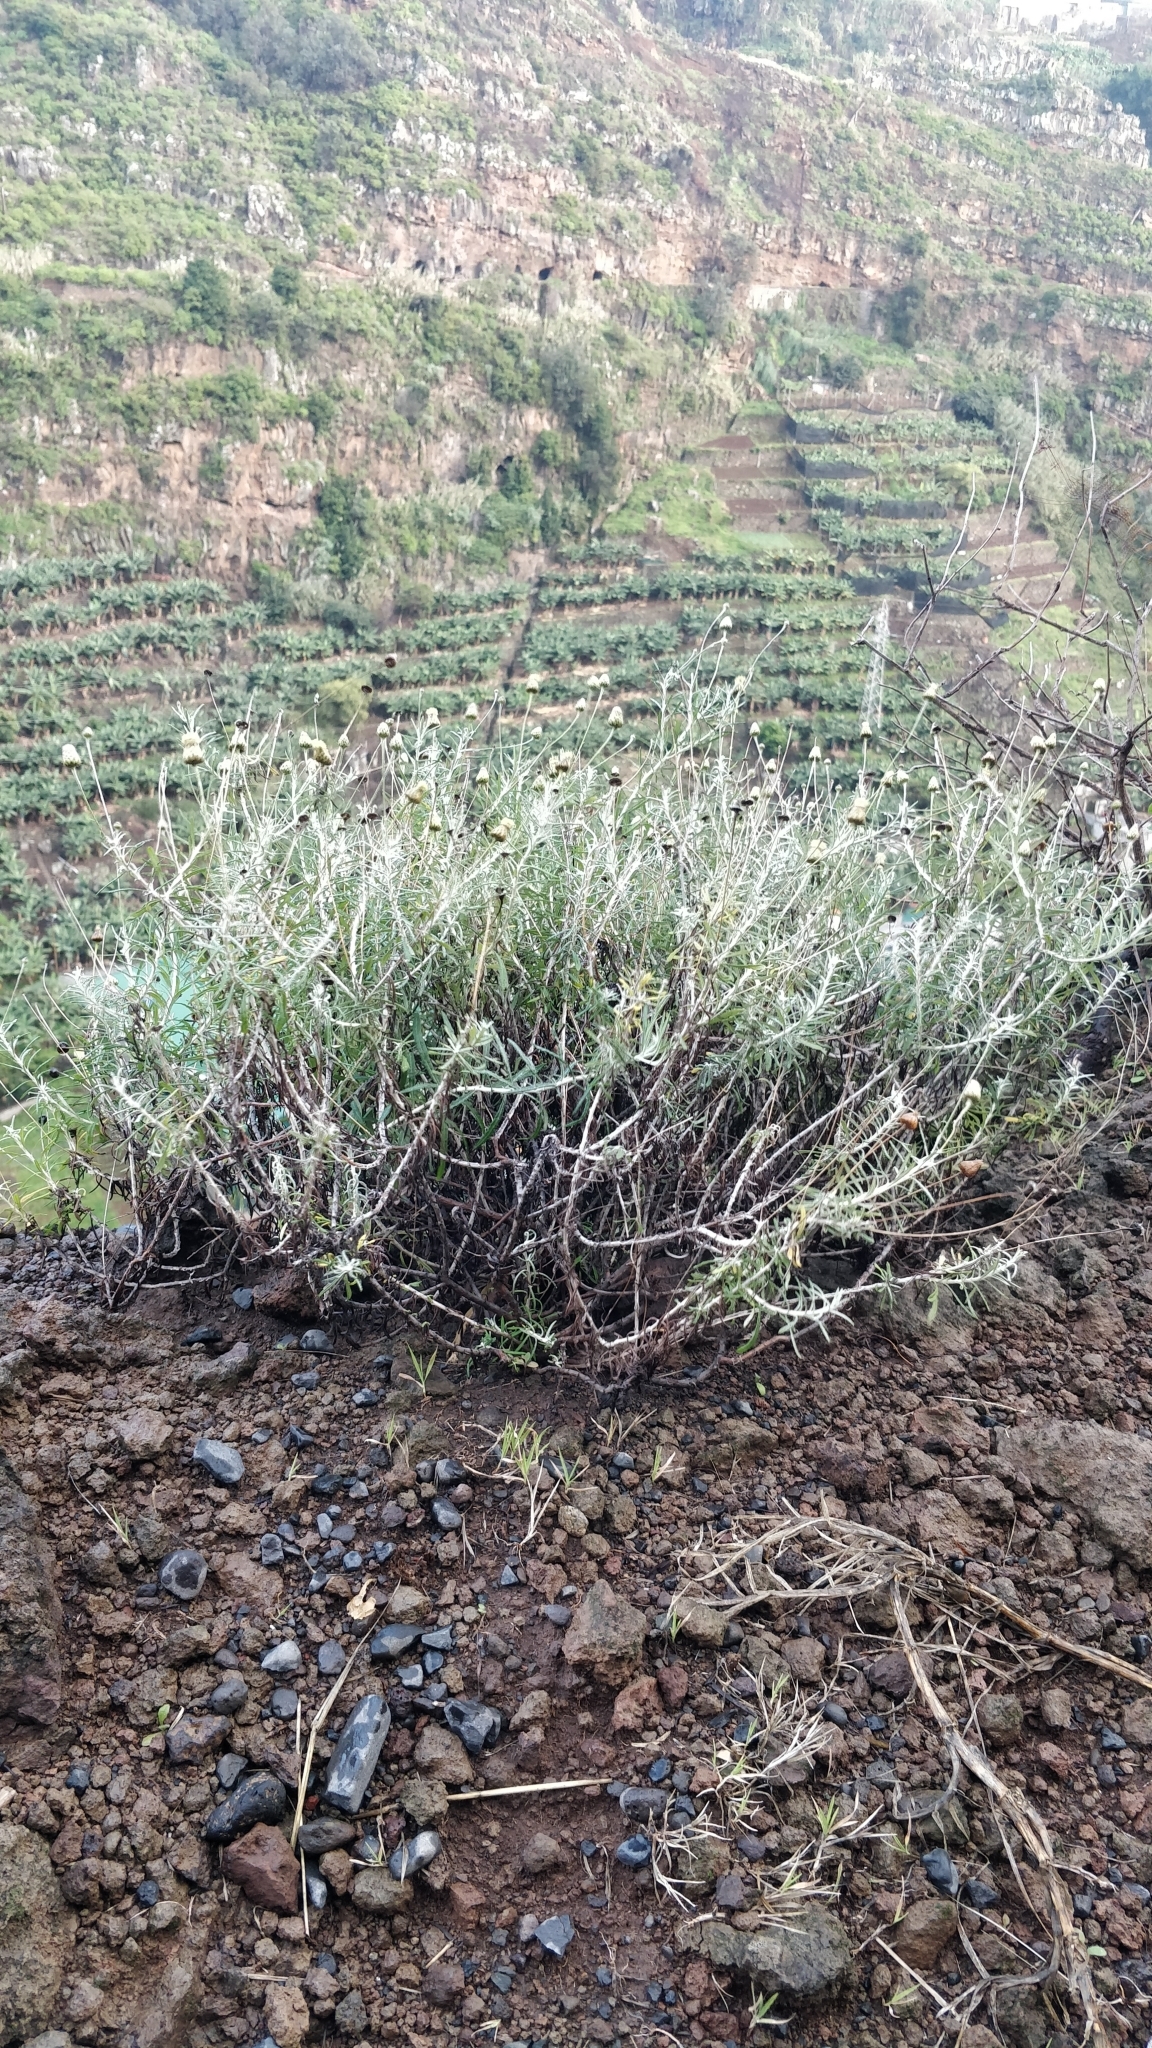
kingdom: Plantae
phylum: Tracheophyta
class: Magnoliopsida
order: Asterales
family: Asteraceae
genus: Phagnalon
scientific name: Phagnalon saxatile
